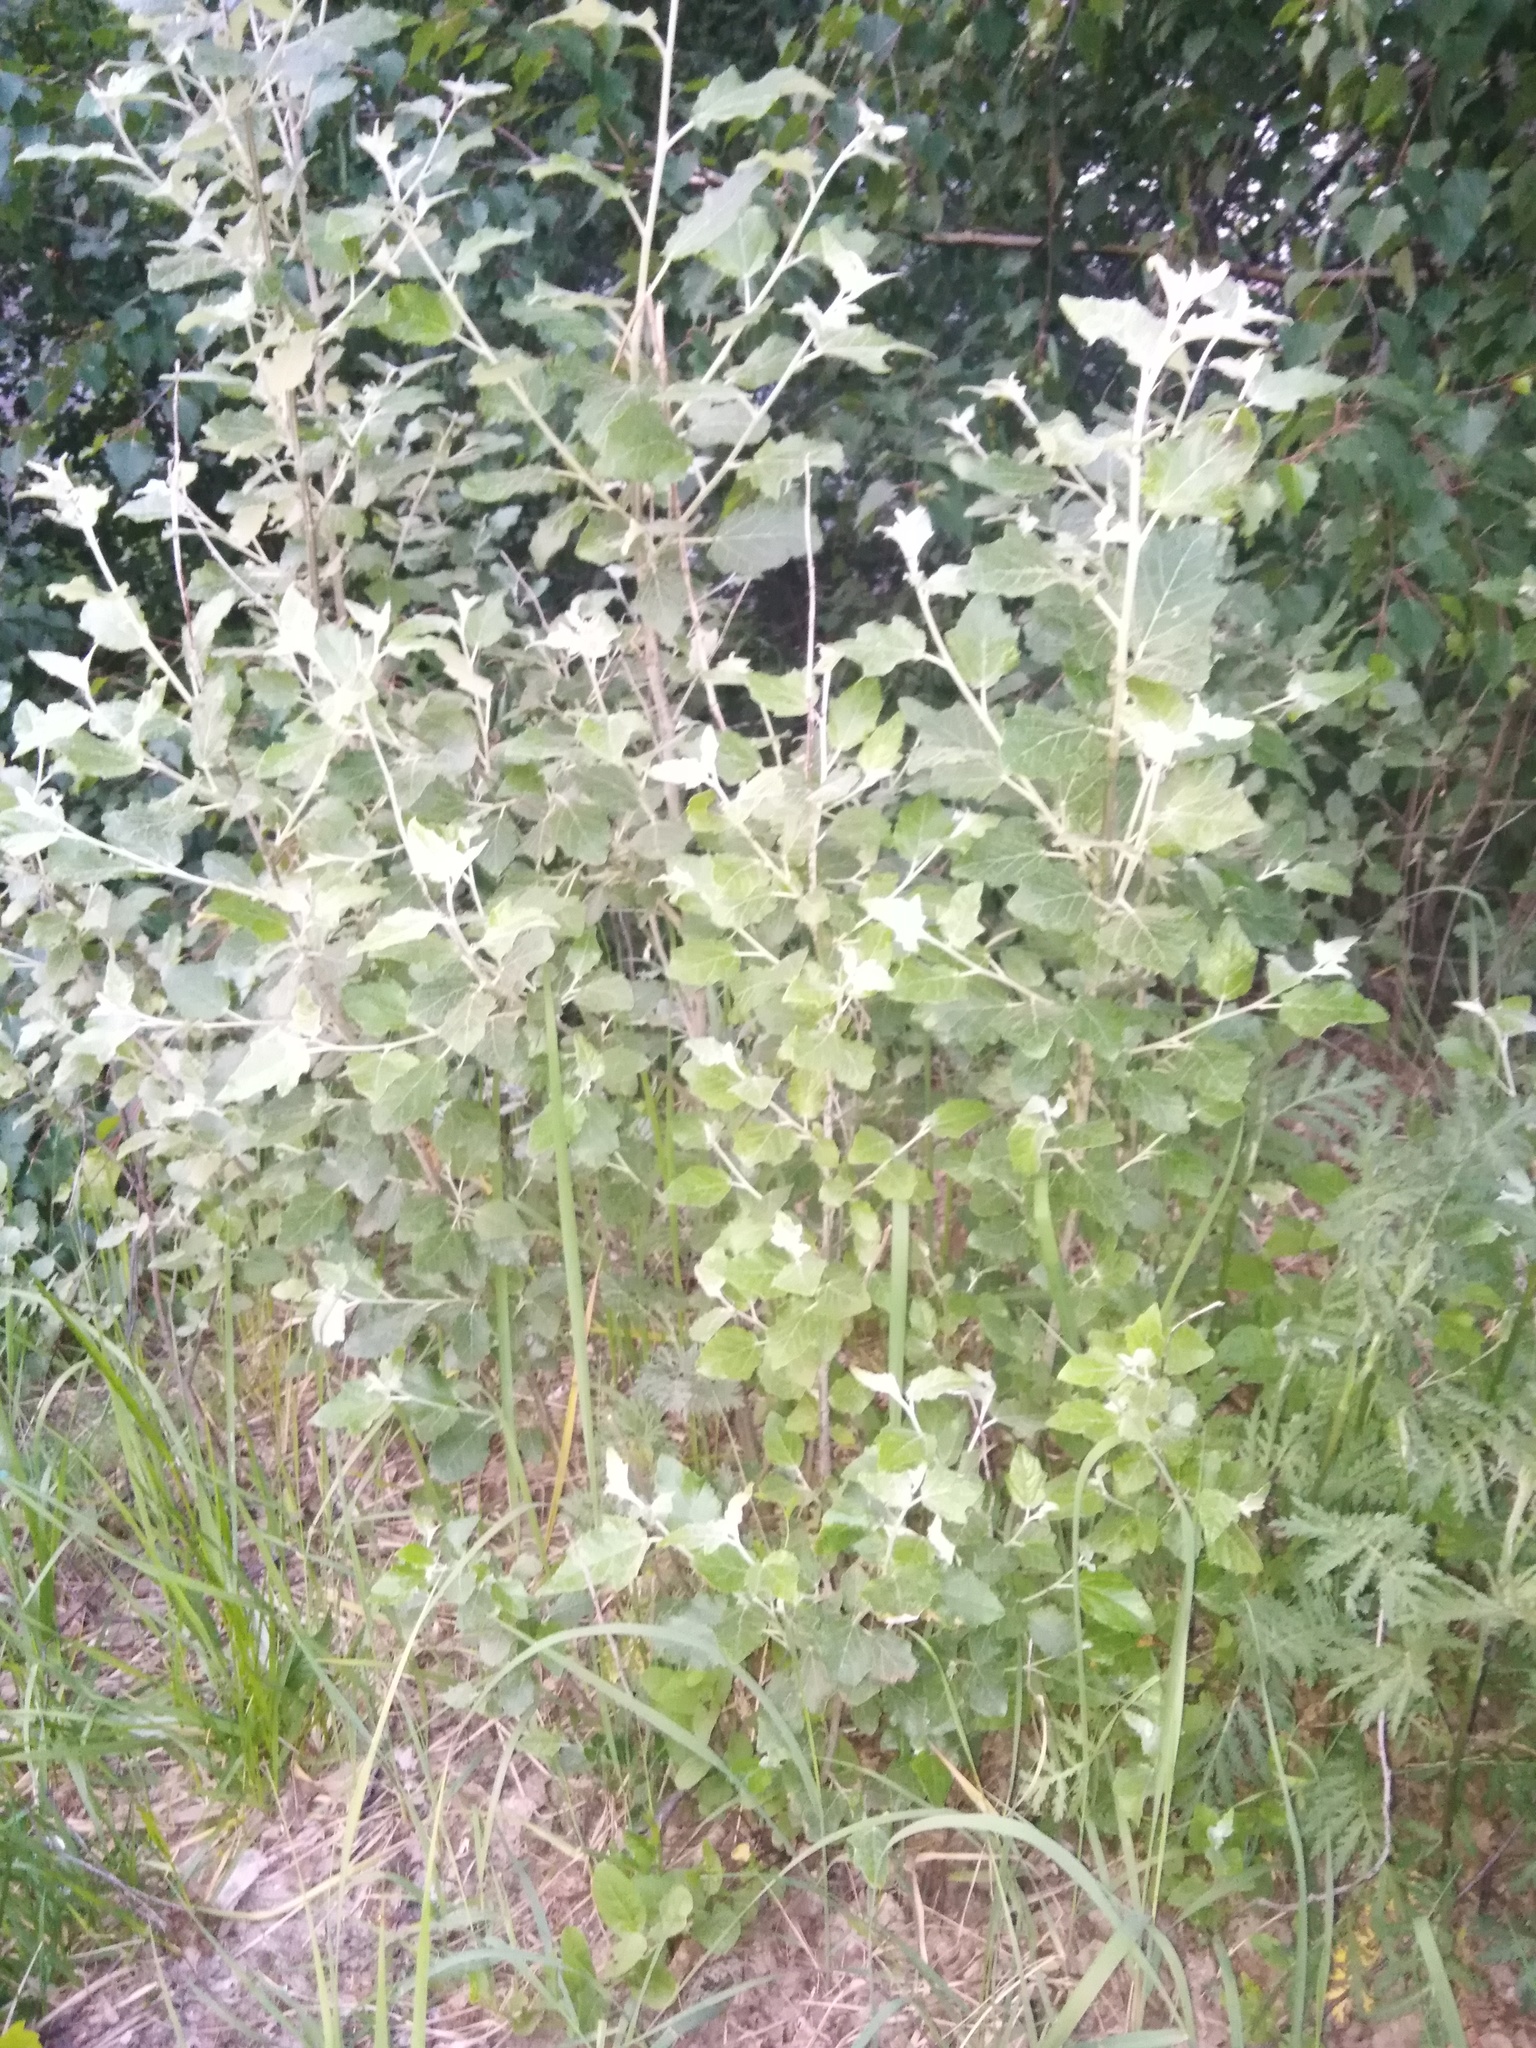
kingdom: Plantae
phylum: Tracheophyta
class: Magnoliopsida
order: Malpighiales
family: Salicaceae
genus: Populus
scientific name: Populus alba
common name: White poplar
